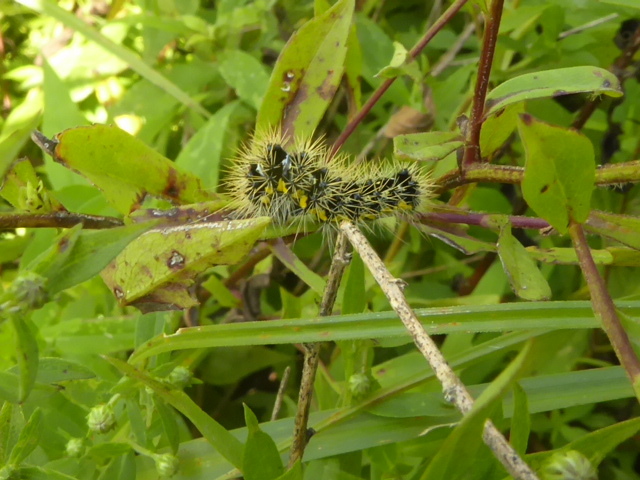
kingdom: Animalia
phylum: Arthropoda
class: Insecta
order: Lepidoptera
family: Noctuidae
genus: Acronicta
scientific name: Acronicta oblinita
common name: Smeared dagger
